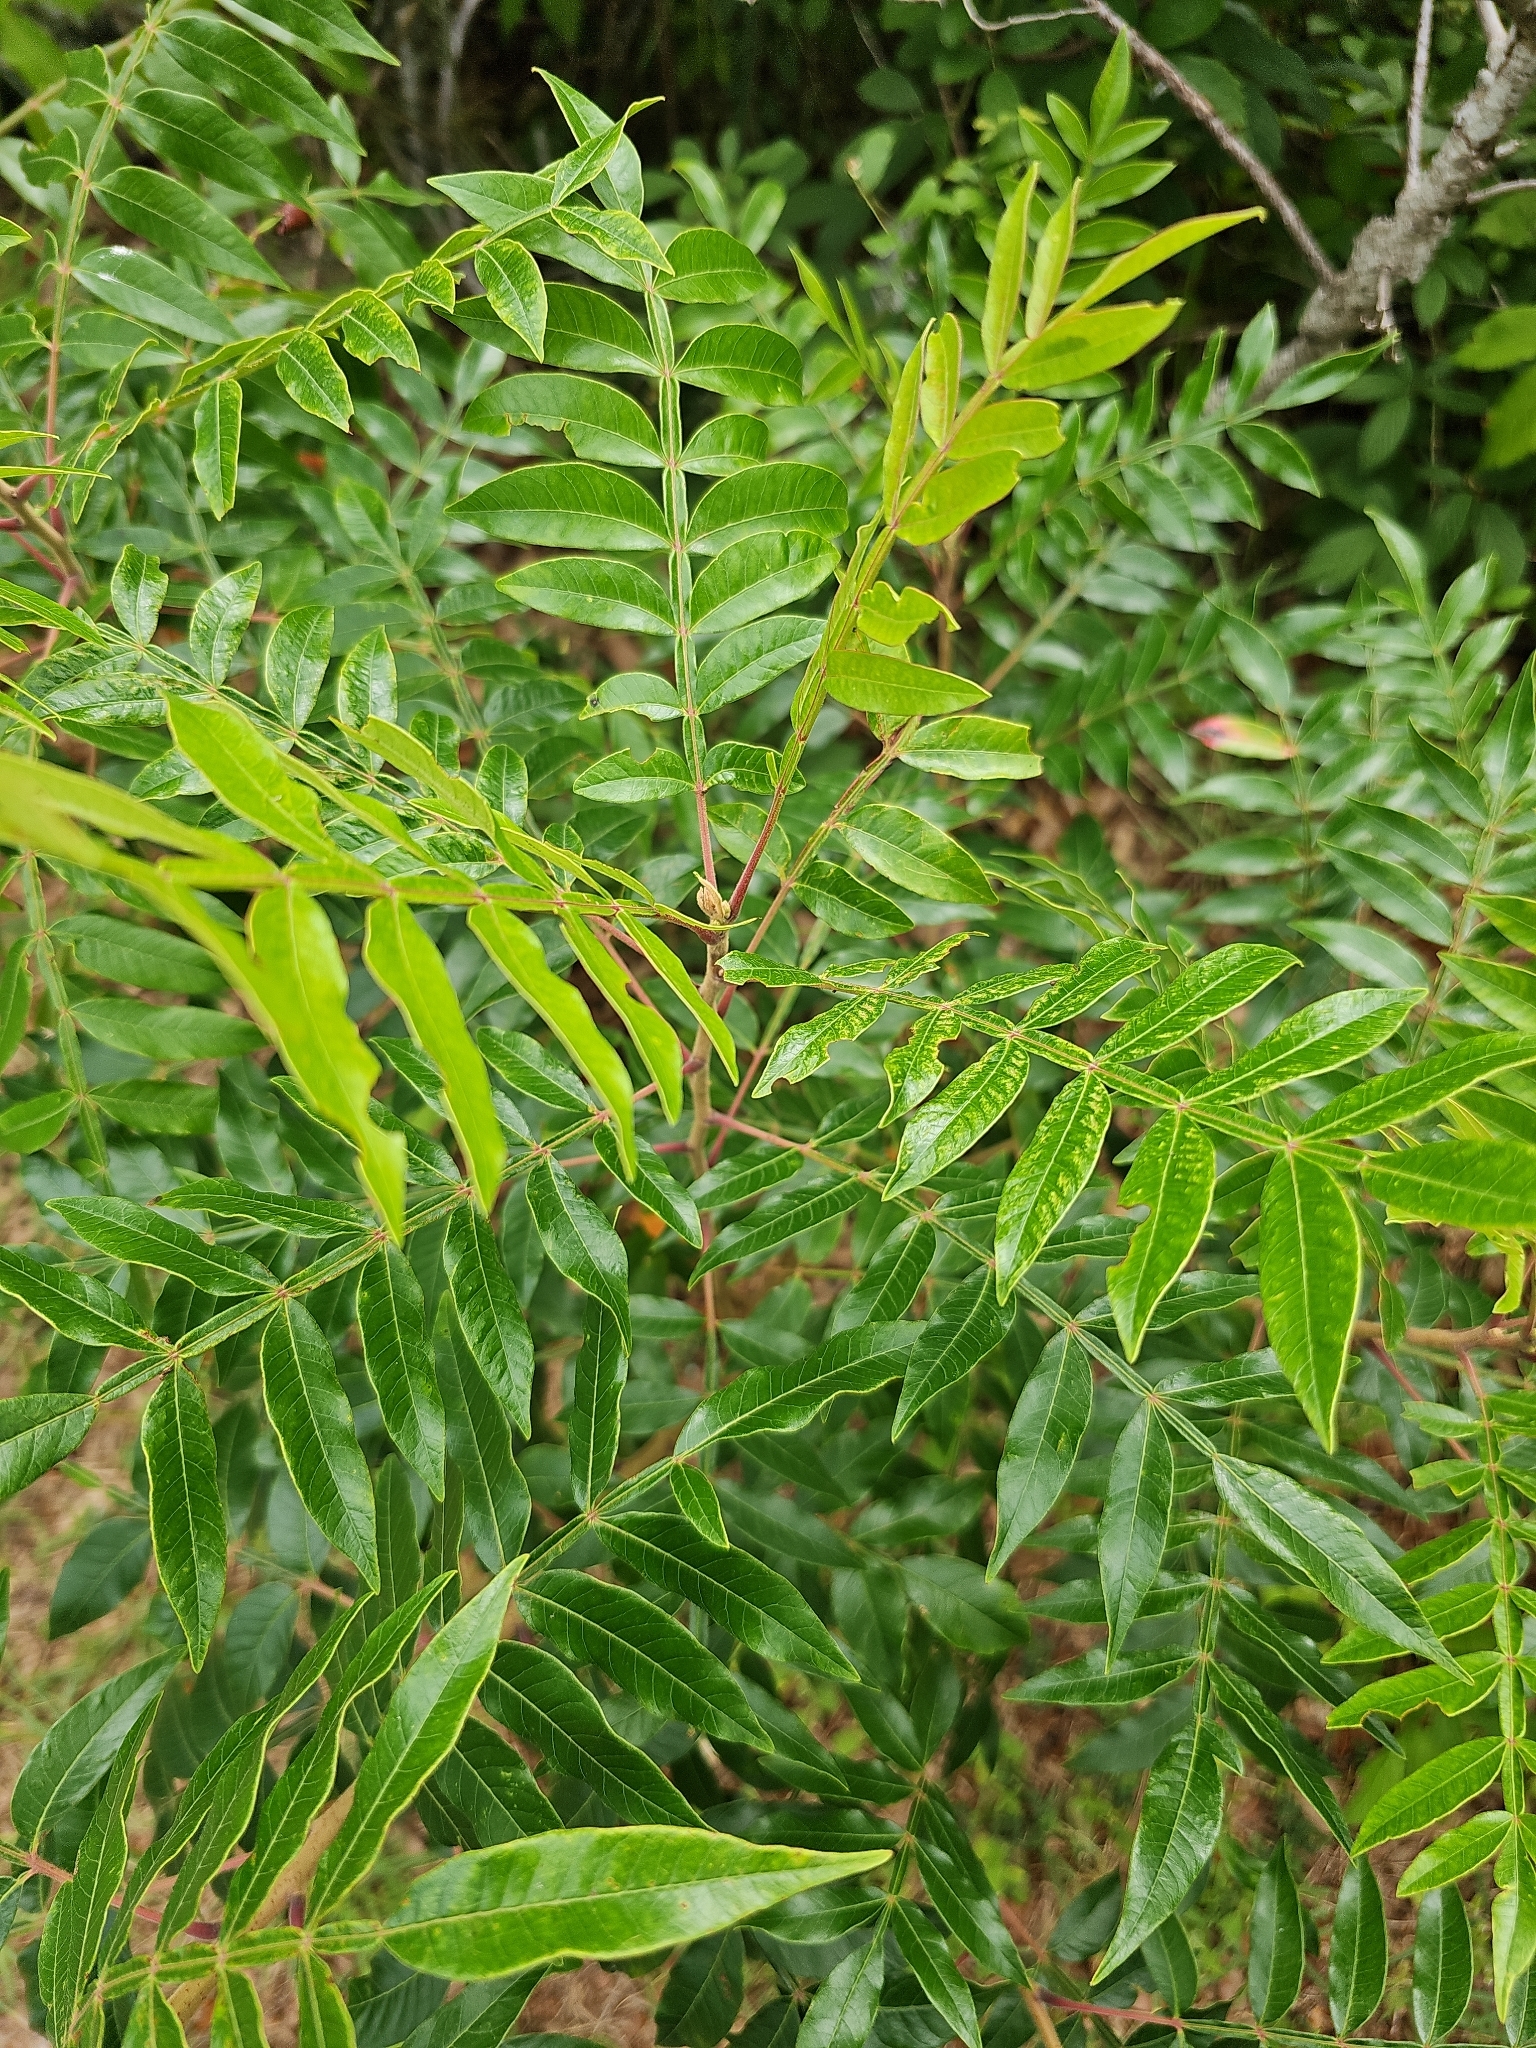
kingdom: Plantae
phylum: Tracheophyta
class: Magnoliopsida
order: Sapindales
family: Anacardiaceae
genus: Rhus
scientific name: Rhus copallina
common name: Shining sumac
